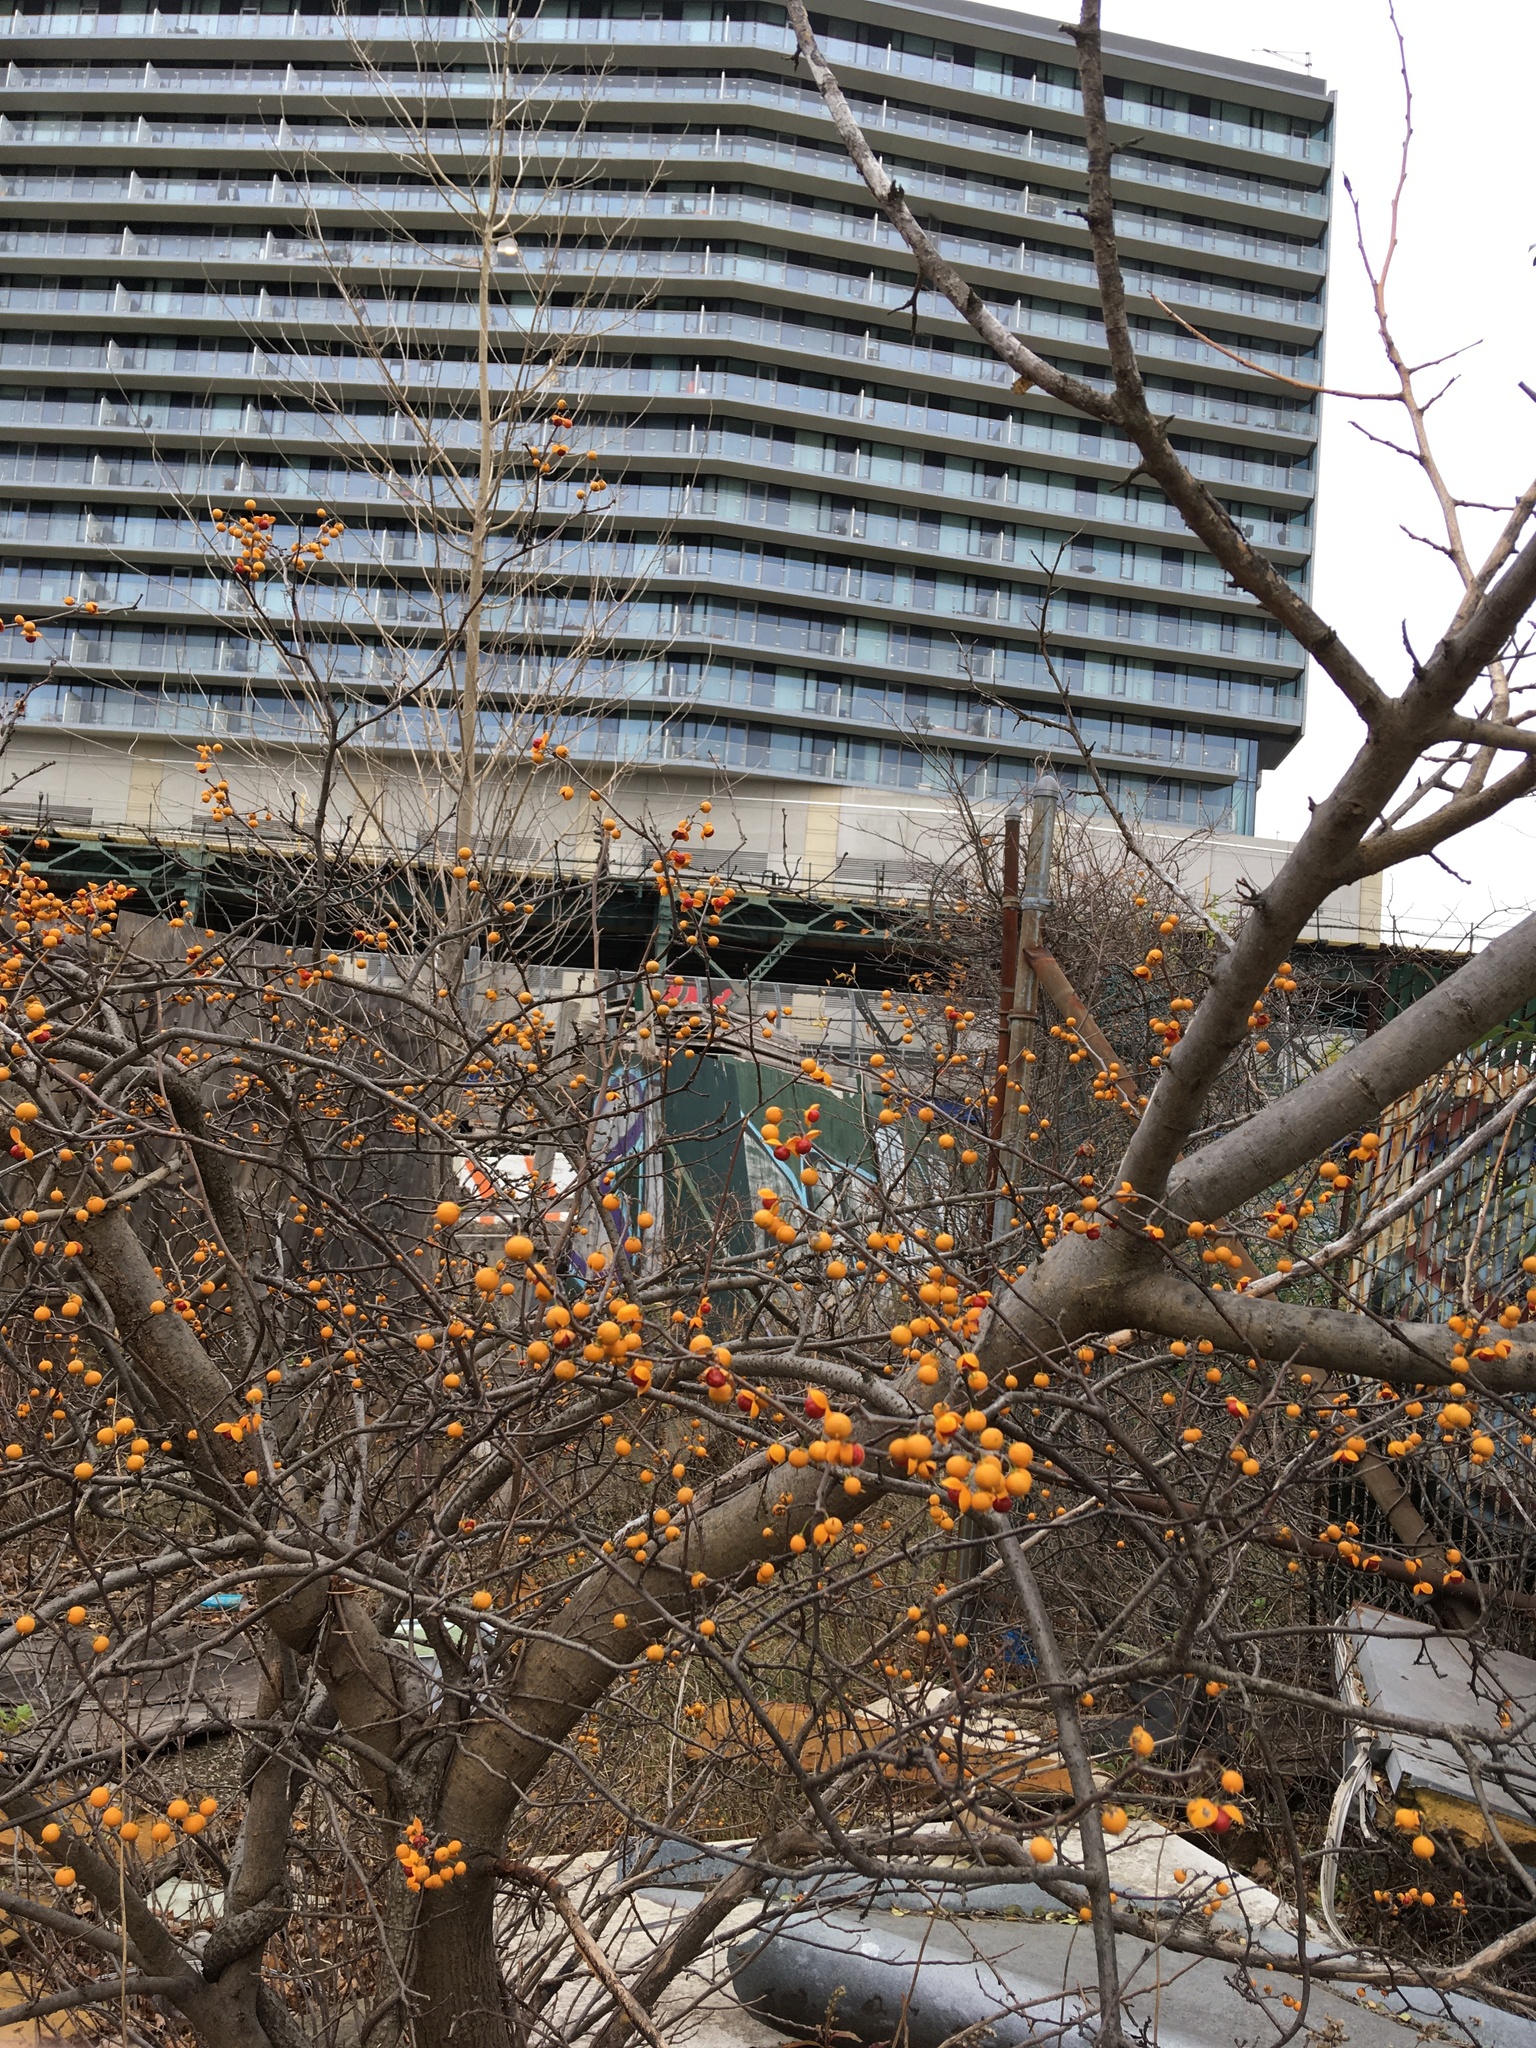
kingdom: Plantae
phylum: Tracheophyta
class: Magnoliopsida
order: Celastrales
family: Celastraceae
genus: Celastrus
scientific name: Celastrus orbiculatus
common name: Oriental bittersweet
